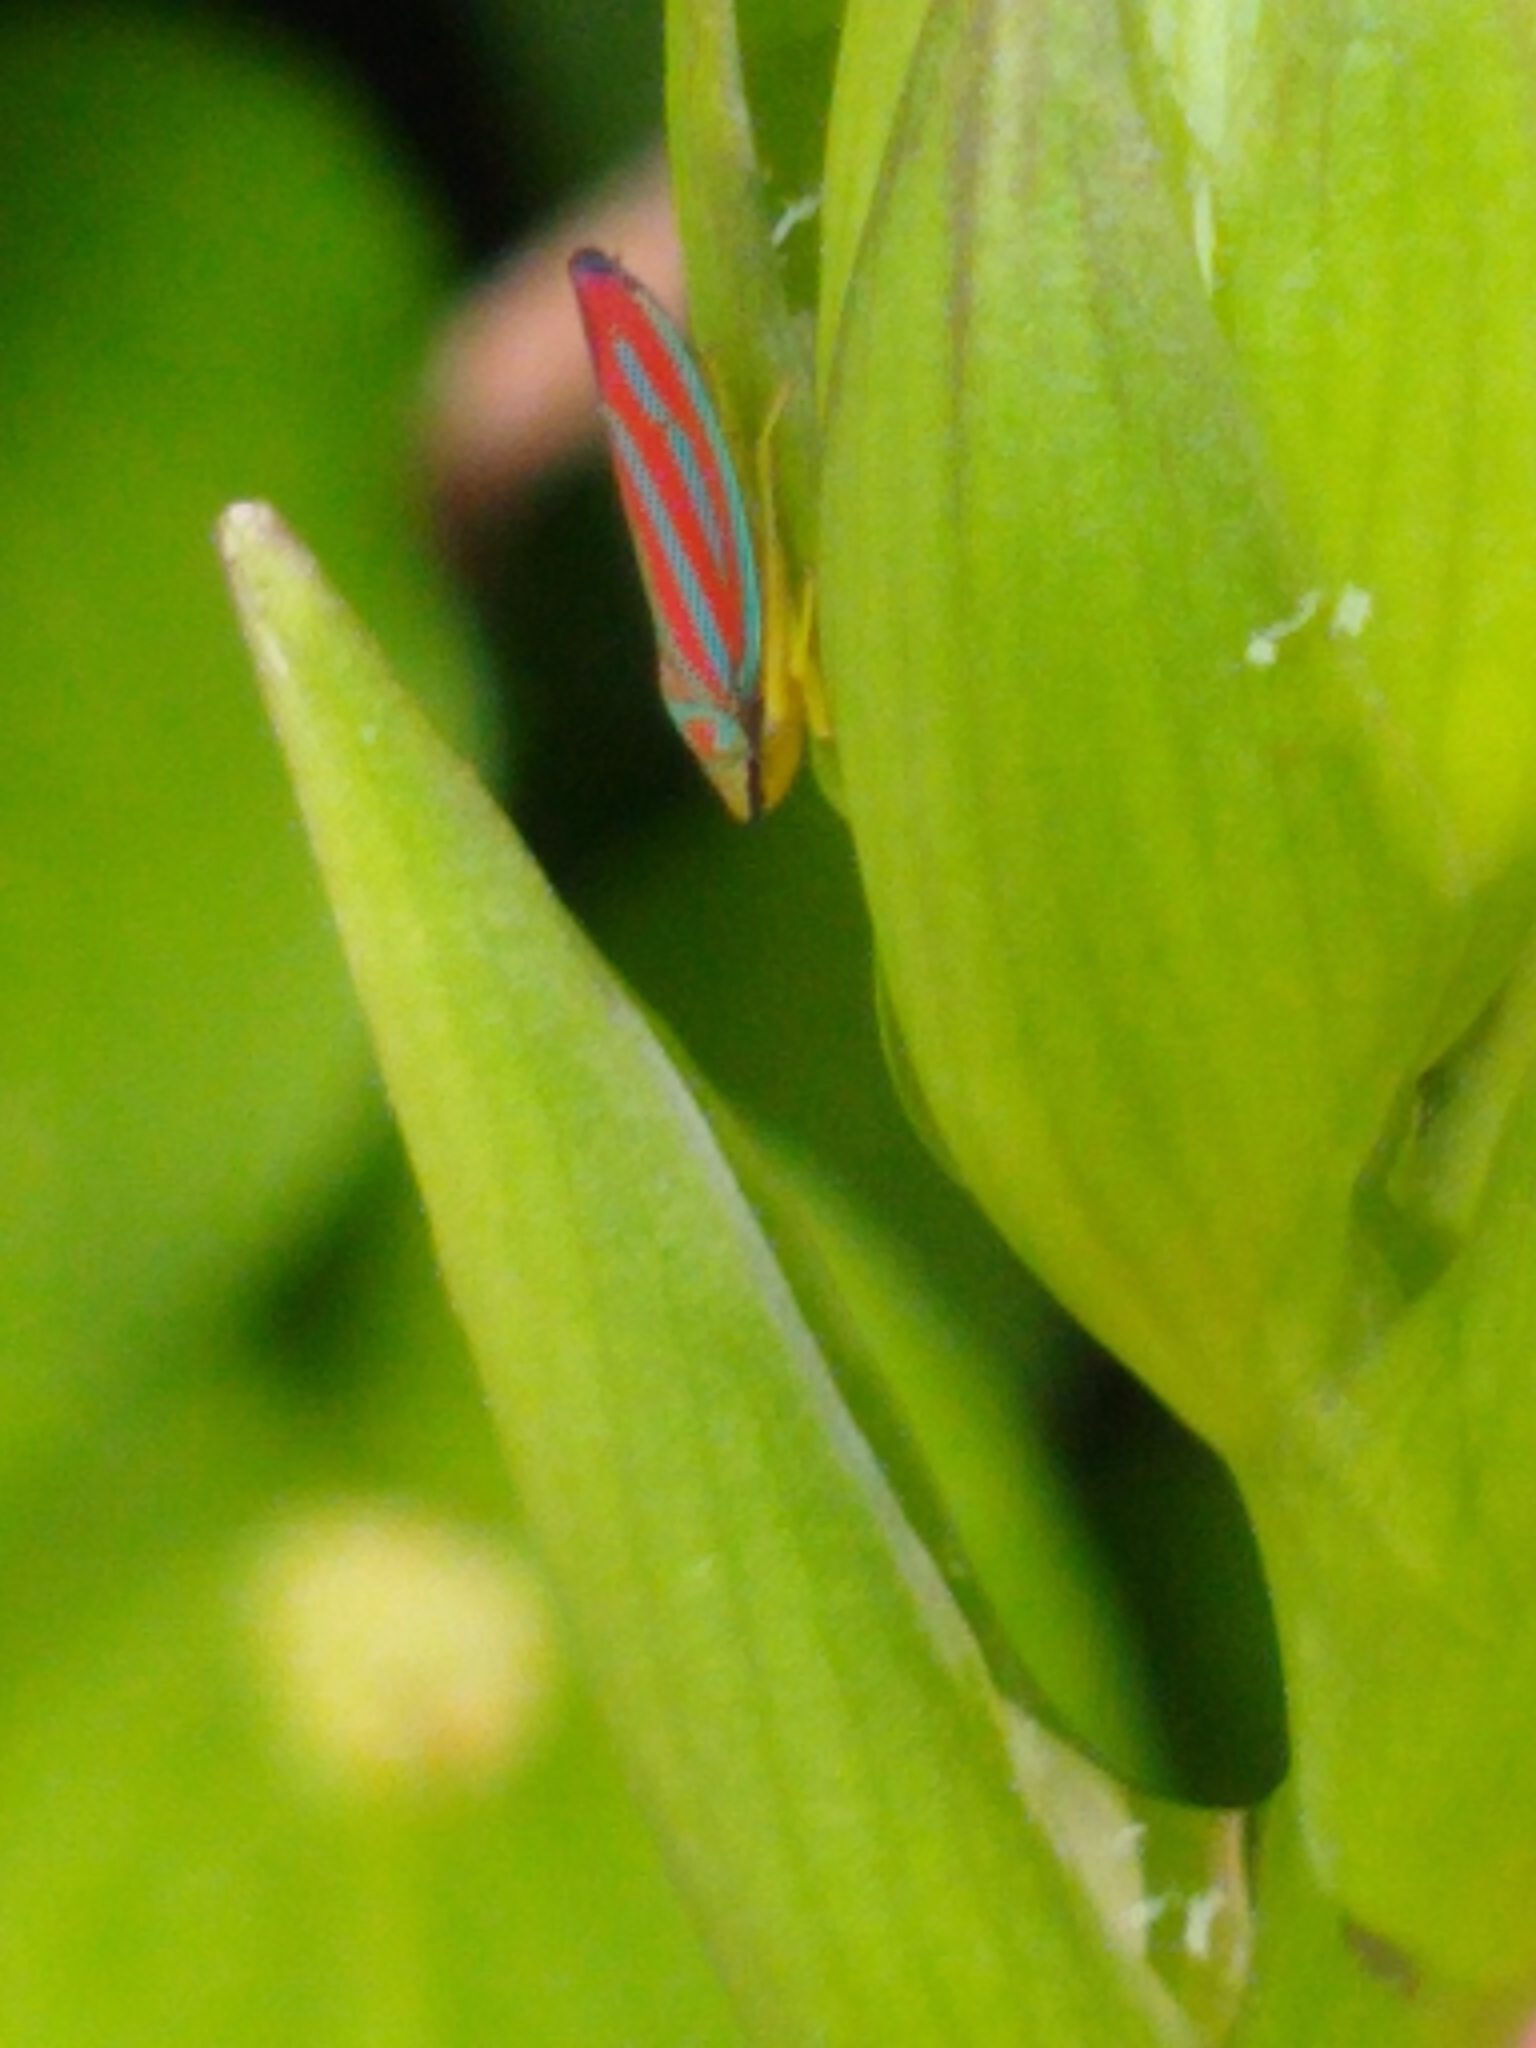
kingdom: Animalia
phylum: Arthropoda
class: Insecta
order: Hemiptera
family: Cicadellidae
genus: Graphocephala
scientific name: Graphocephala coccinea
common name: Candy-striped leafhopper
